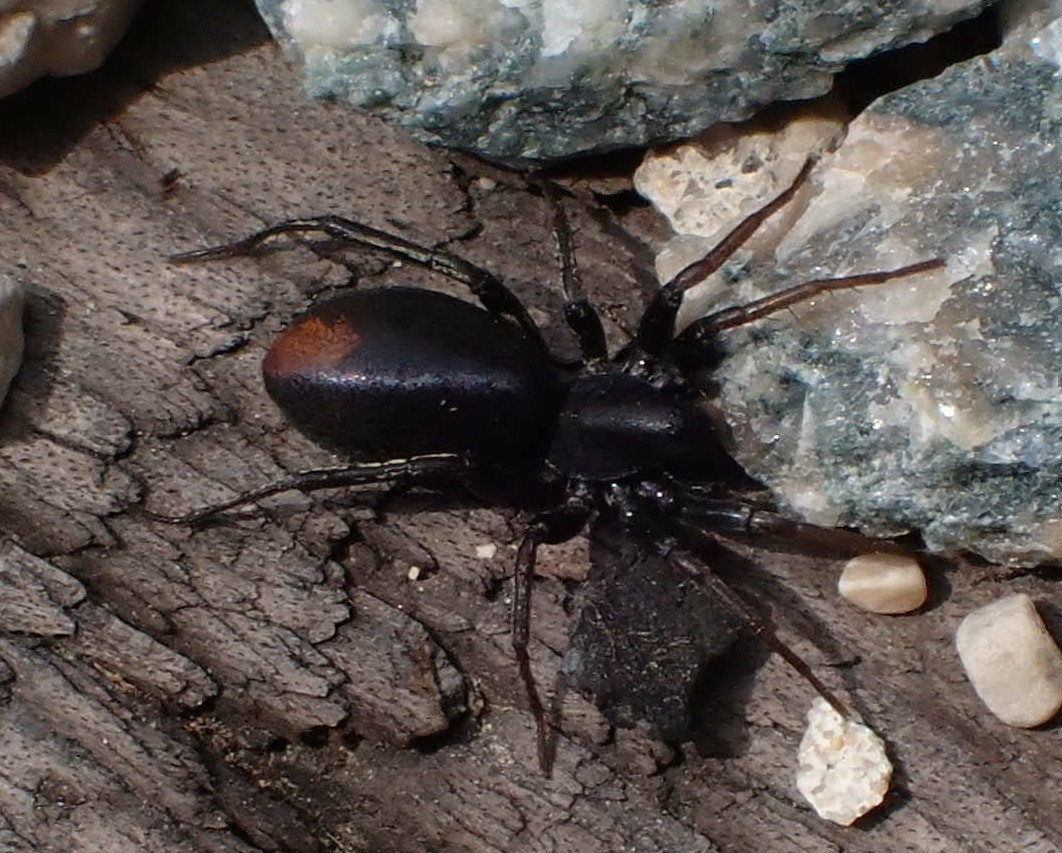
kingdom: Animalia
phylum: Arthropoda
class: Arachnida
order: Araneae
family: Corinnidae
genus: Castianeira
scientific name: Castianeira descripta
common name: Red-spotted ant-mimic sac spider
